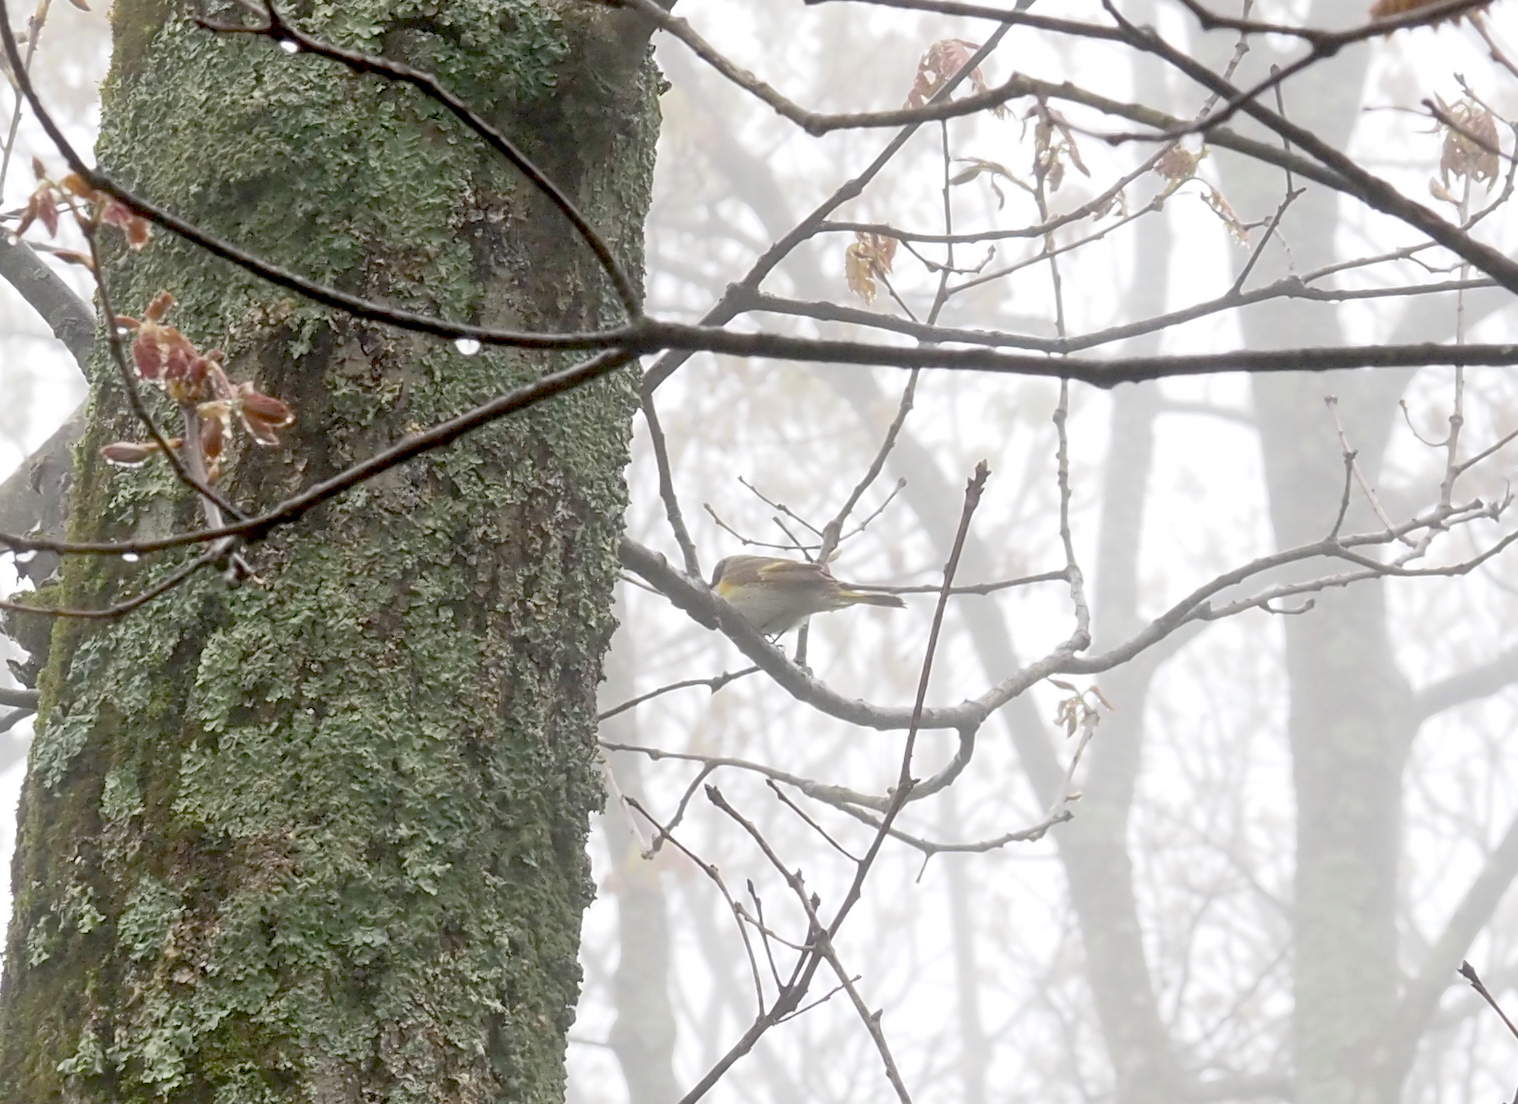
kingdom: Animalia
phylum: Chordata
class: Aves
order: Passeriformes
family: Parulidae
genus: Setophaga
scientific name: Setophaga ruticilla
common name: American redstart
